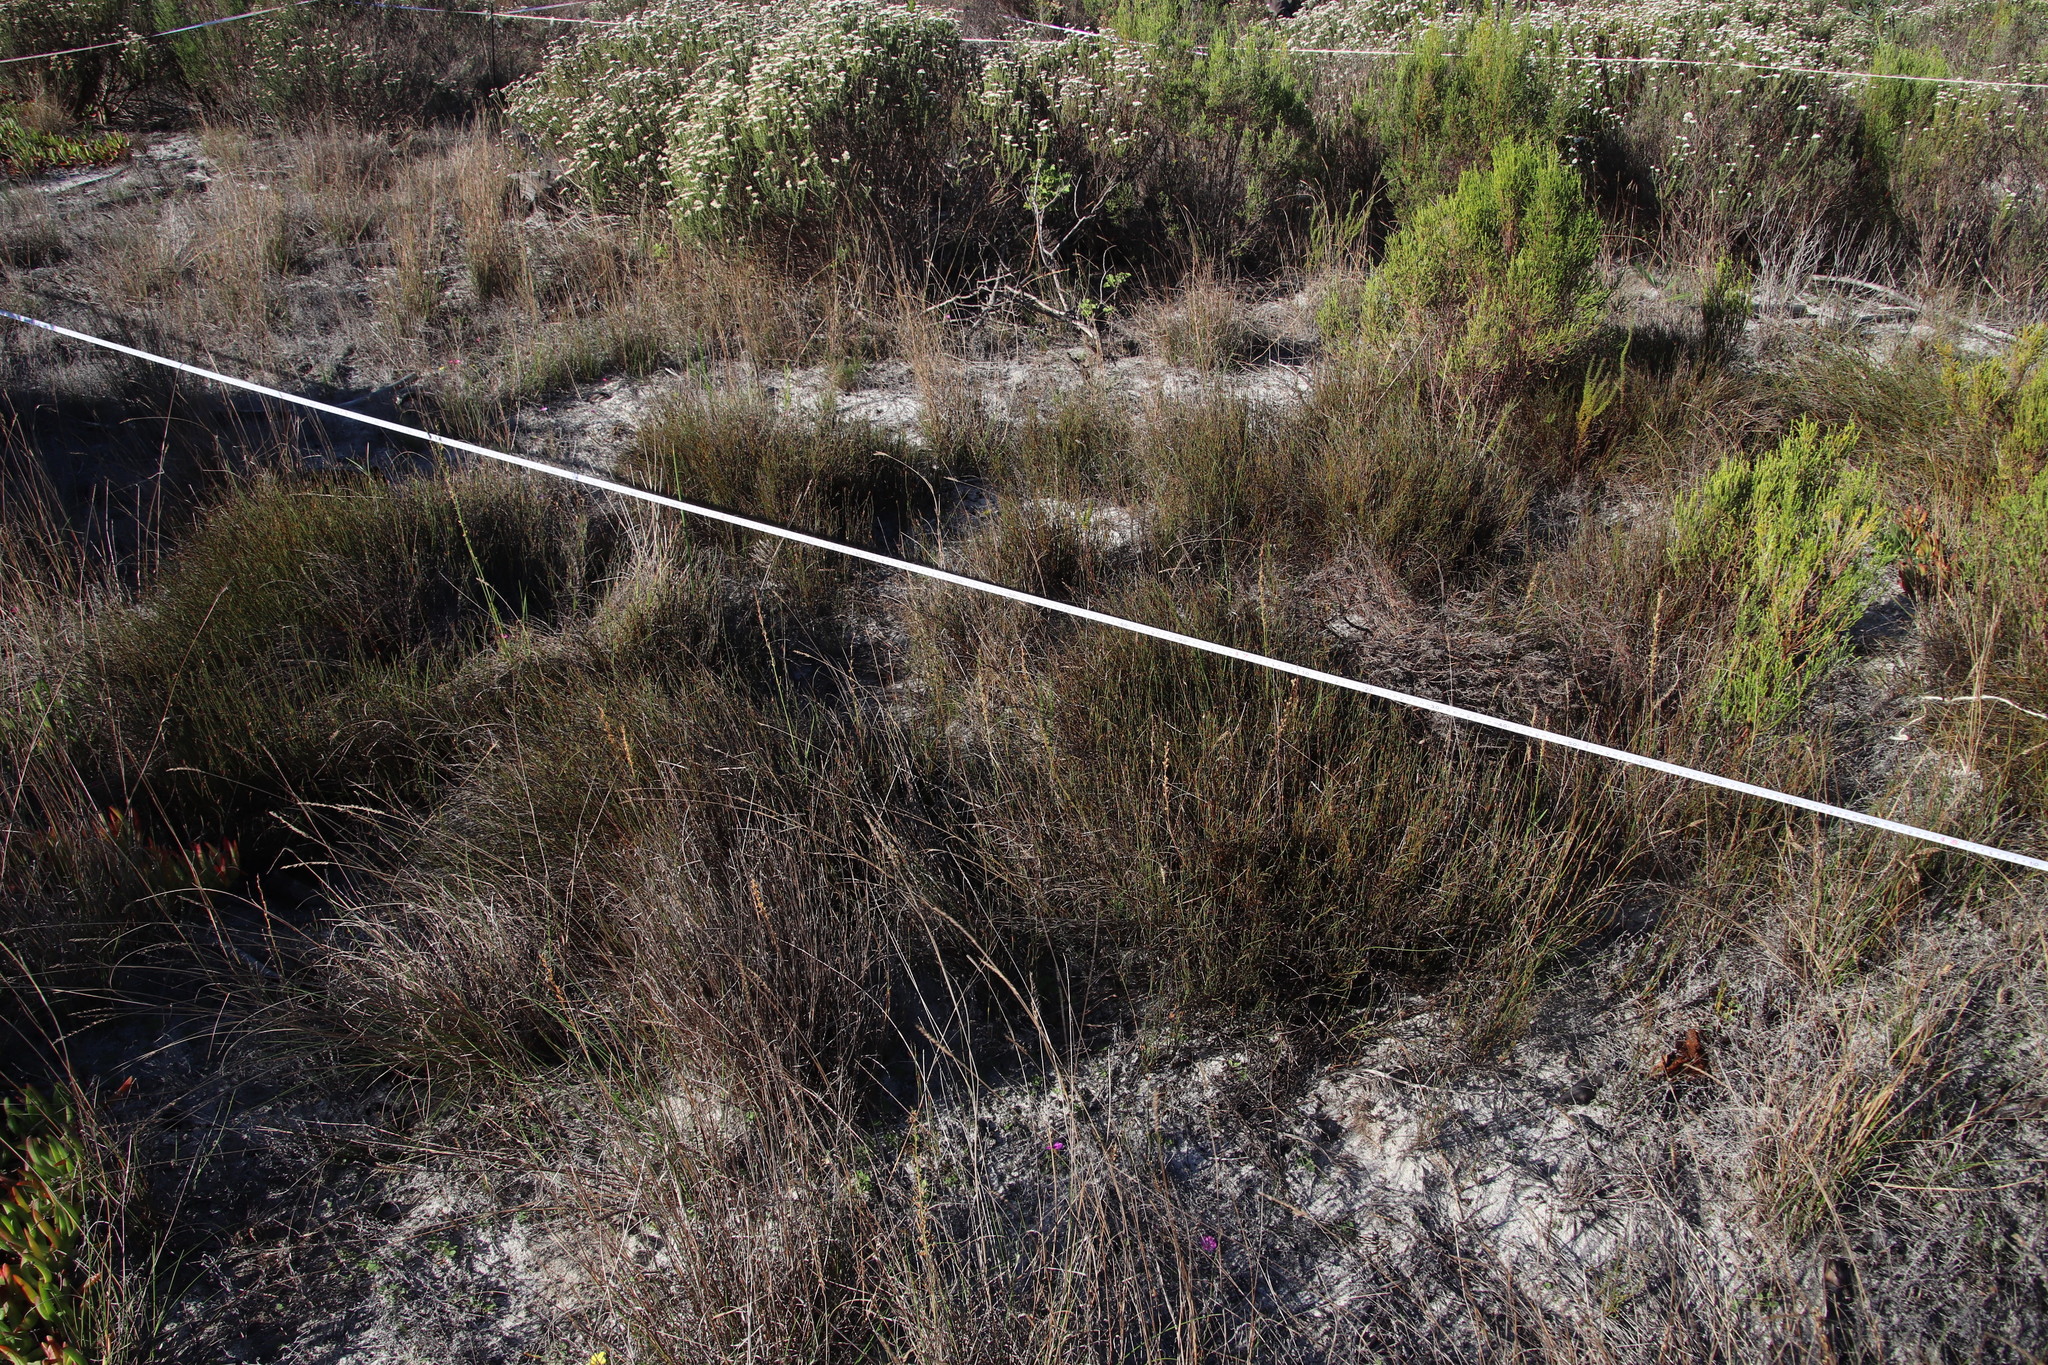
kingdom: Plantae
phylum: Tracheophyta
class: Liliopsida
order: Poales
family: Poaceae
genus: Tribolium
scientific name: Tribolium uniolae
